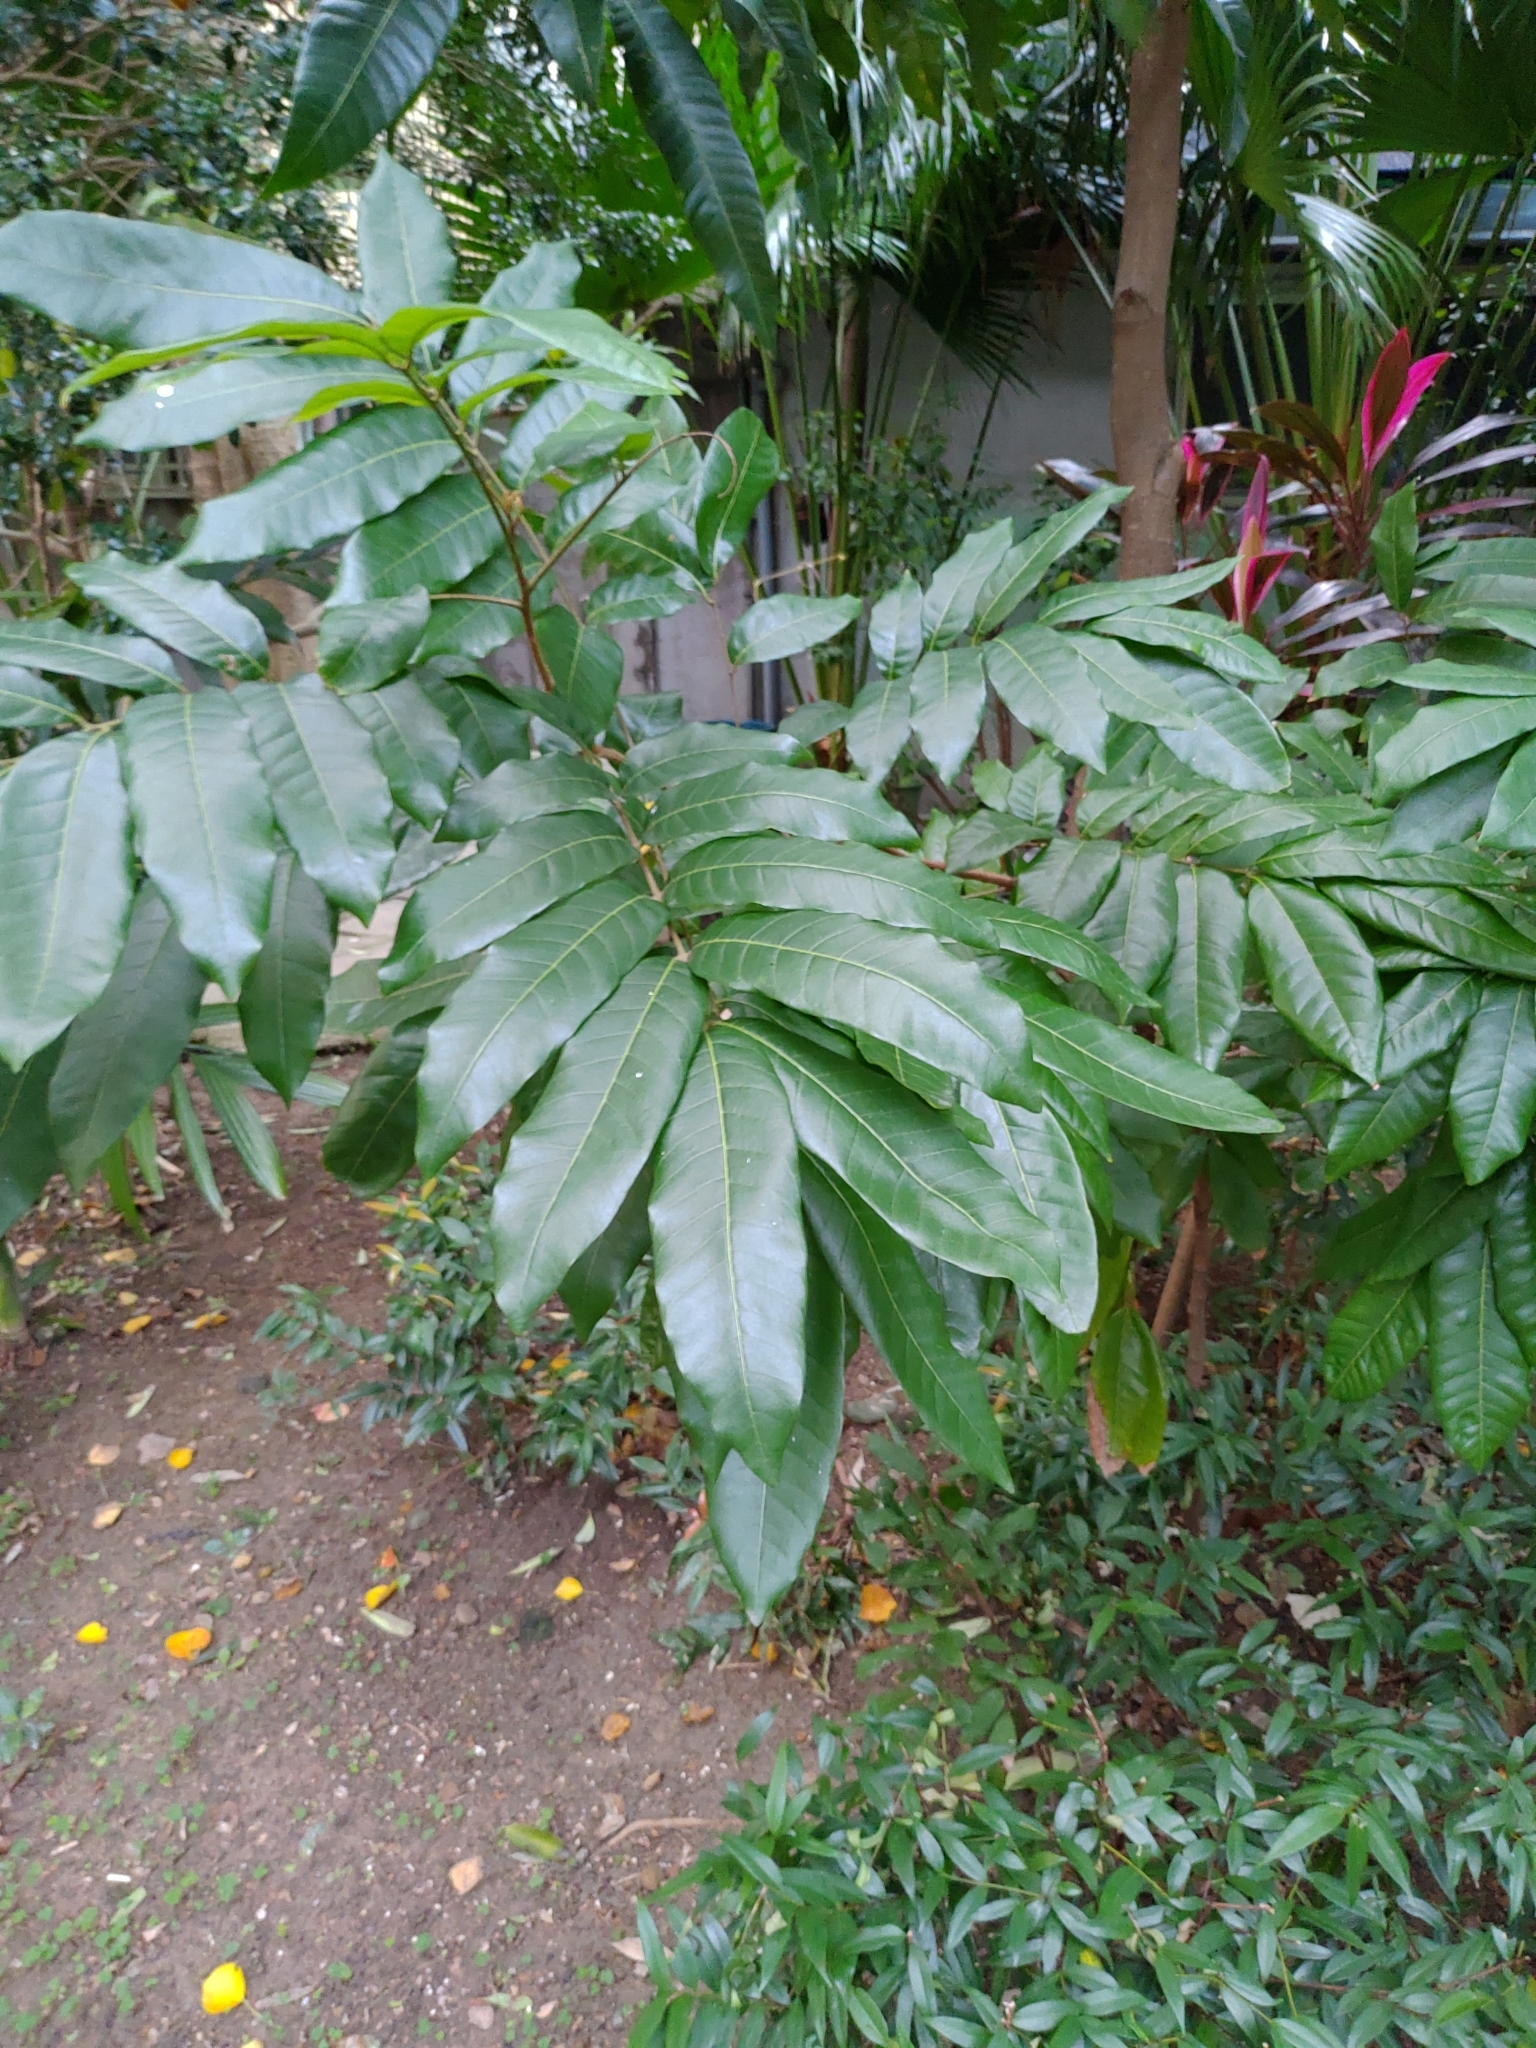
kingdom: Plantae
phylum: Tracheophyta
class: Magnoliopsida
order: Sapindales
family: Sapindaceae
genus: Dimocarpus
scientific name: Dimocarpus longan
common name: Longan
